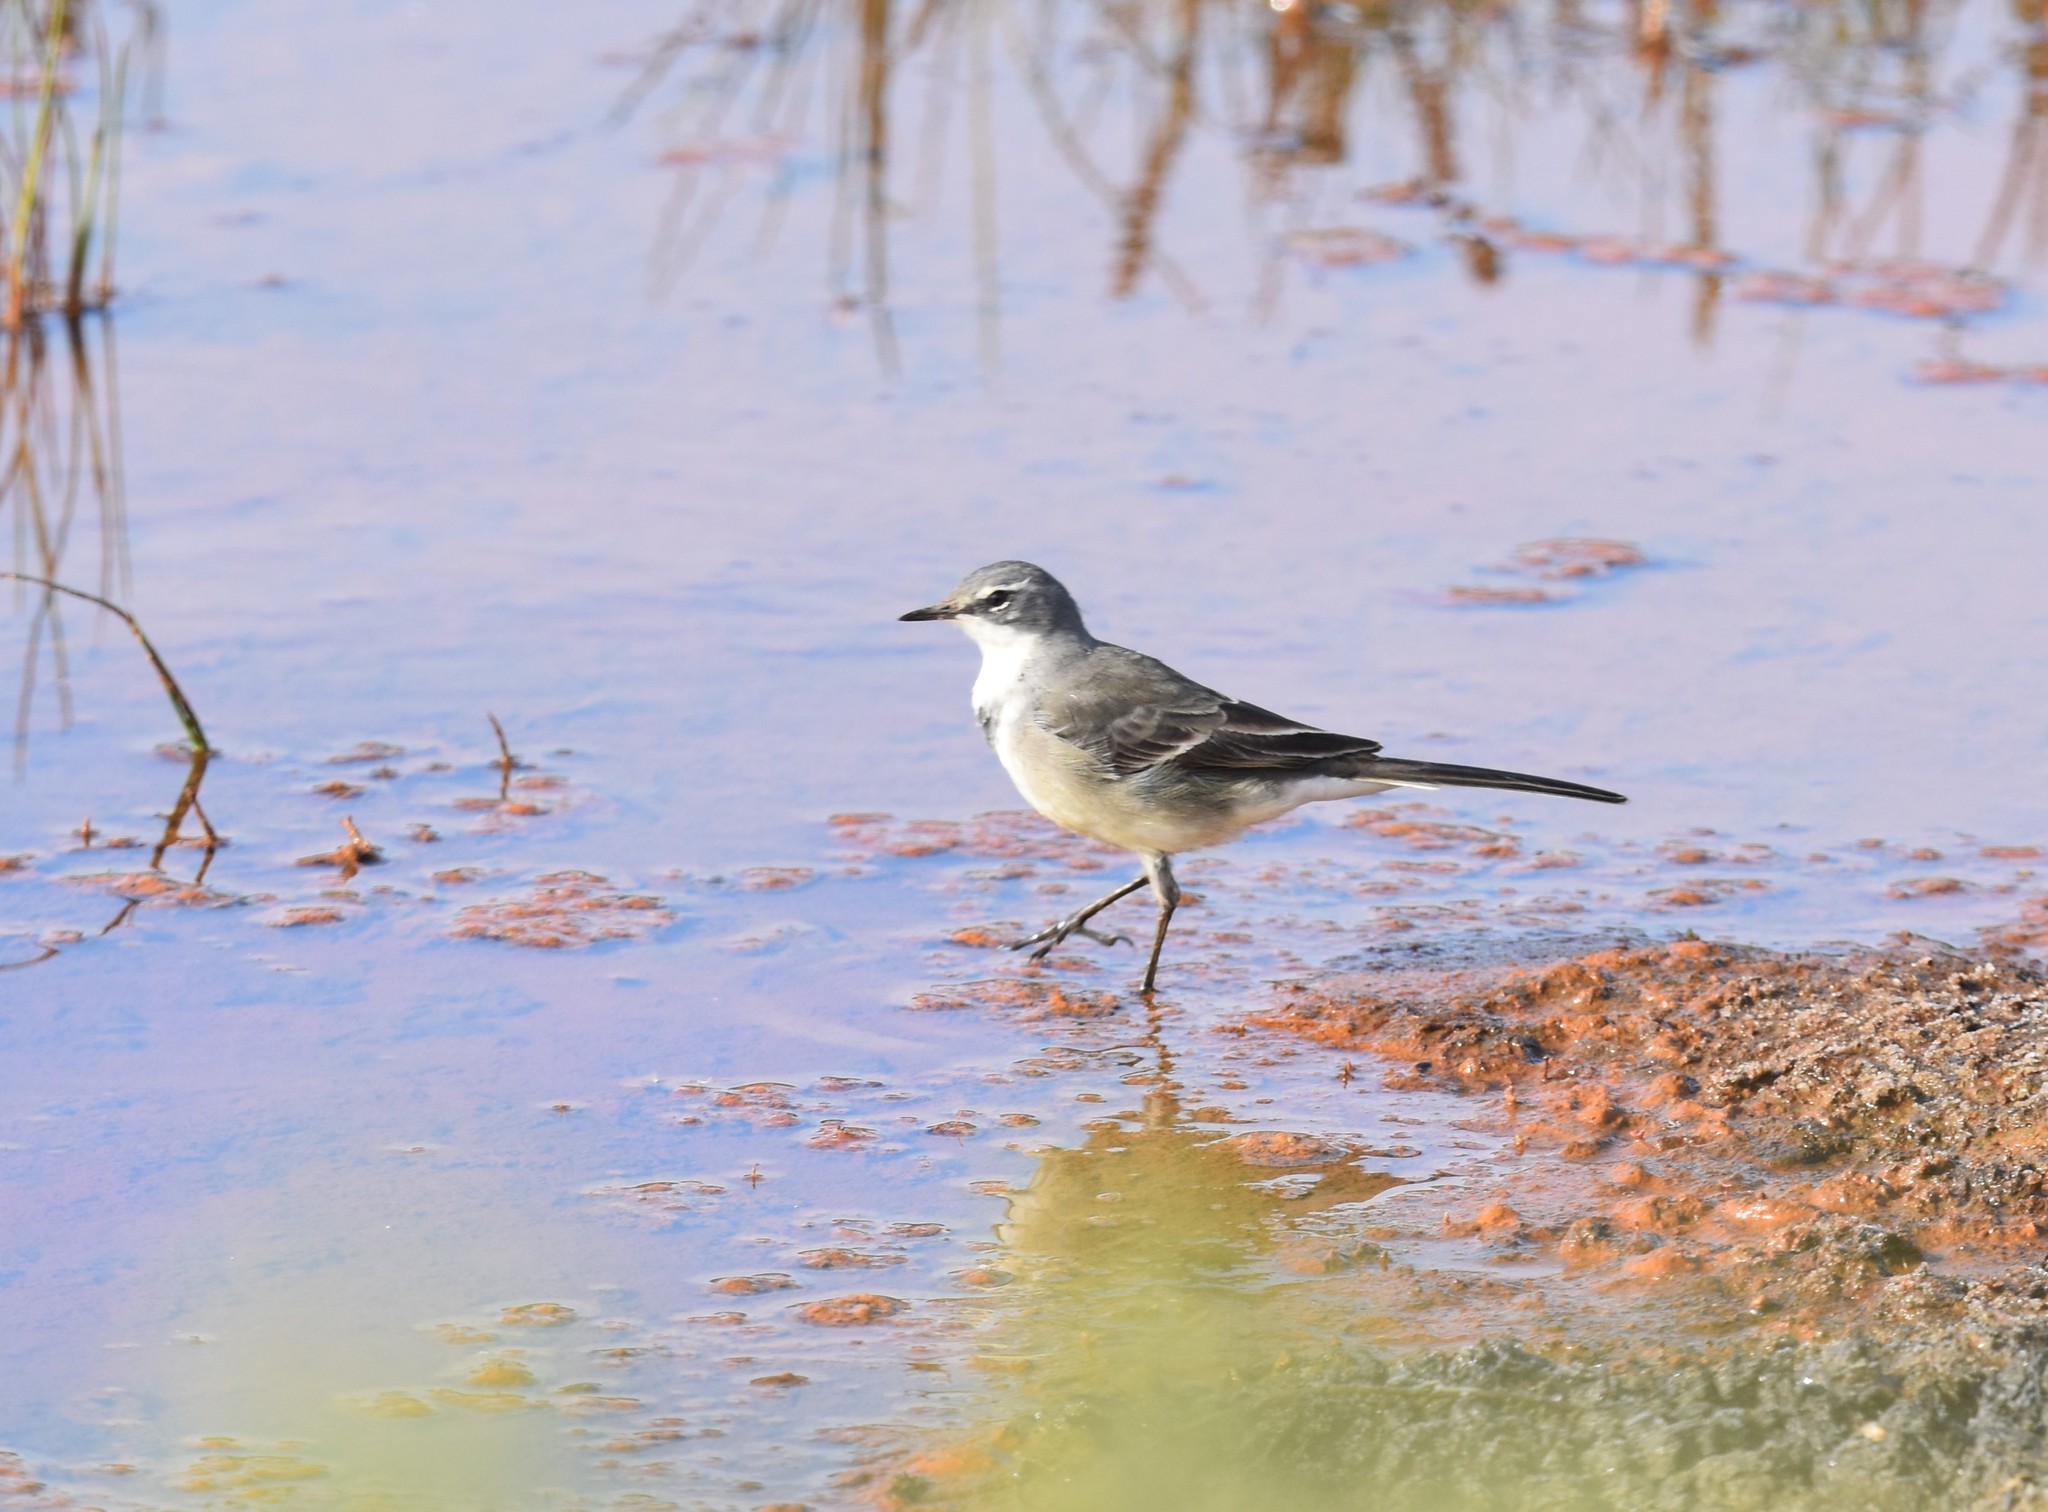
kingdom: Animalia
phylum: Chordata
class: Aves
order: Passeriformes
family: Motacillidae
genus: Motacilla
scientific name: Motacilla capensis
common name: Cape wagtail
